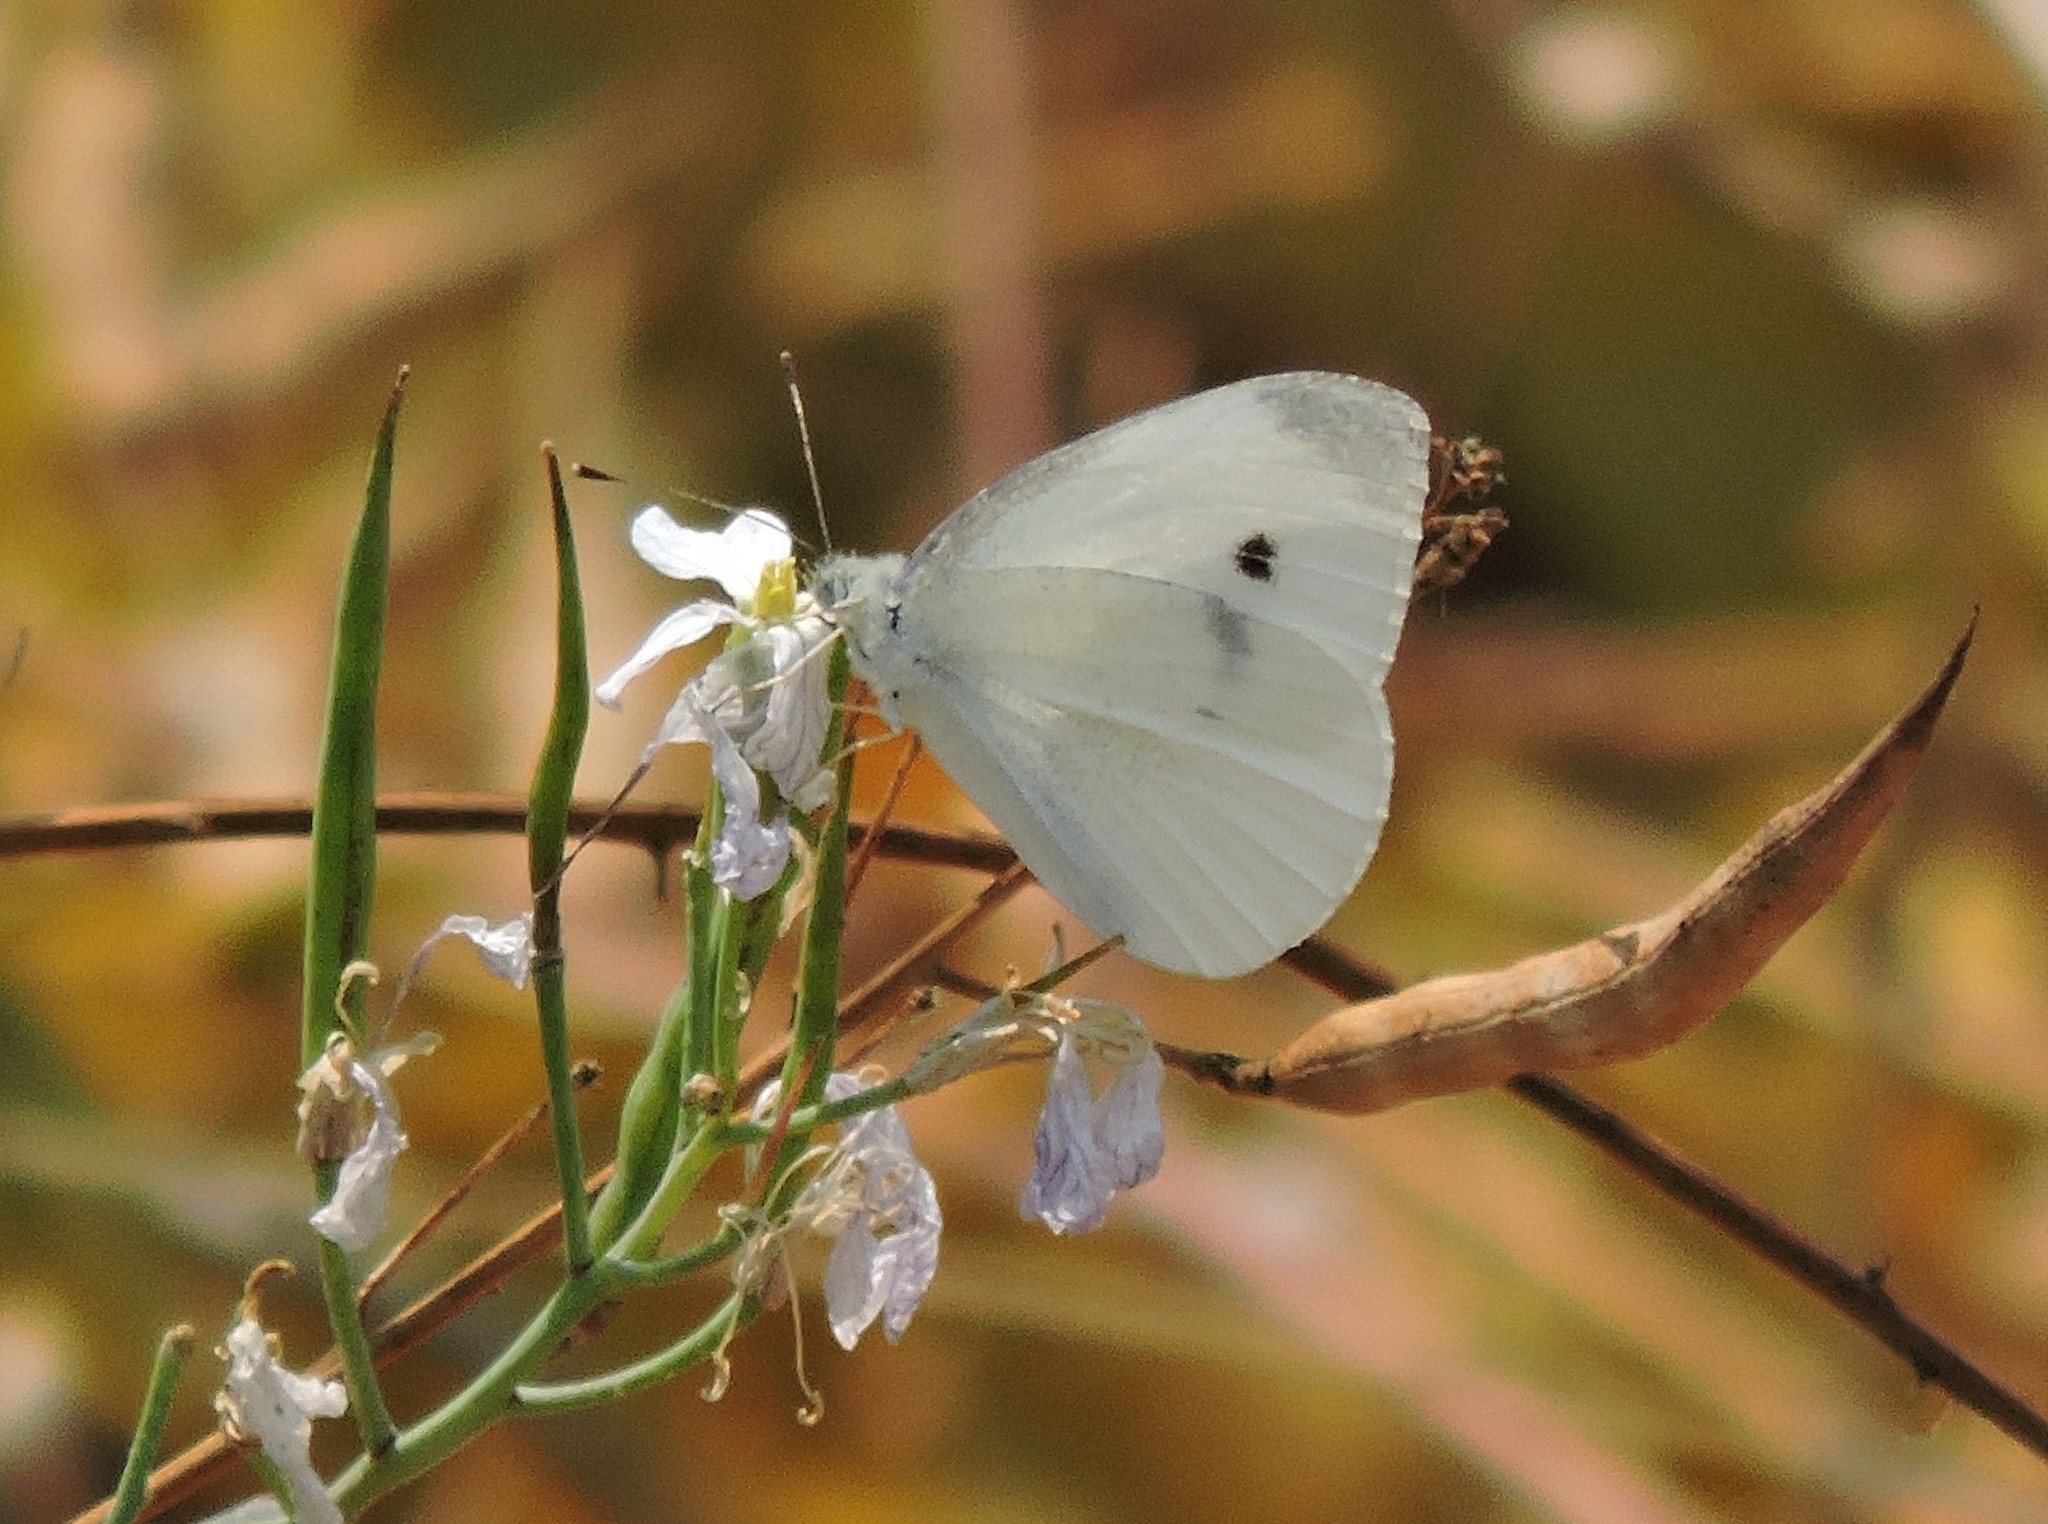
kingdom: Animalia
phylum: Arthropoda
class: Insecta
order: Lepidoptera
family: Pieridae
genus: Pieris
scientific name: Pieris rapae
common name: Small white
